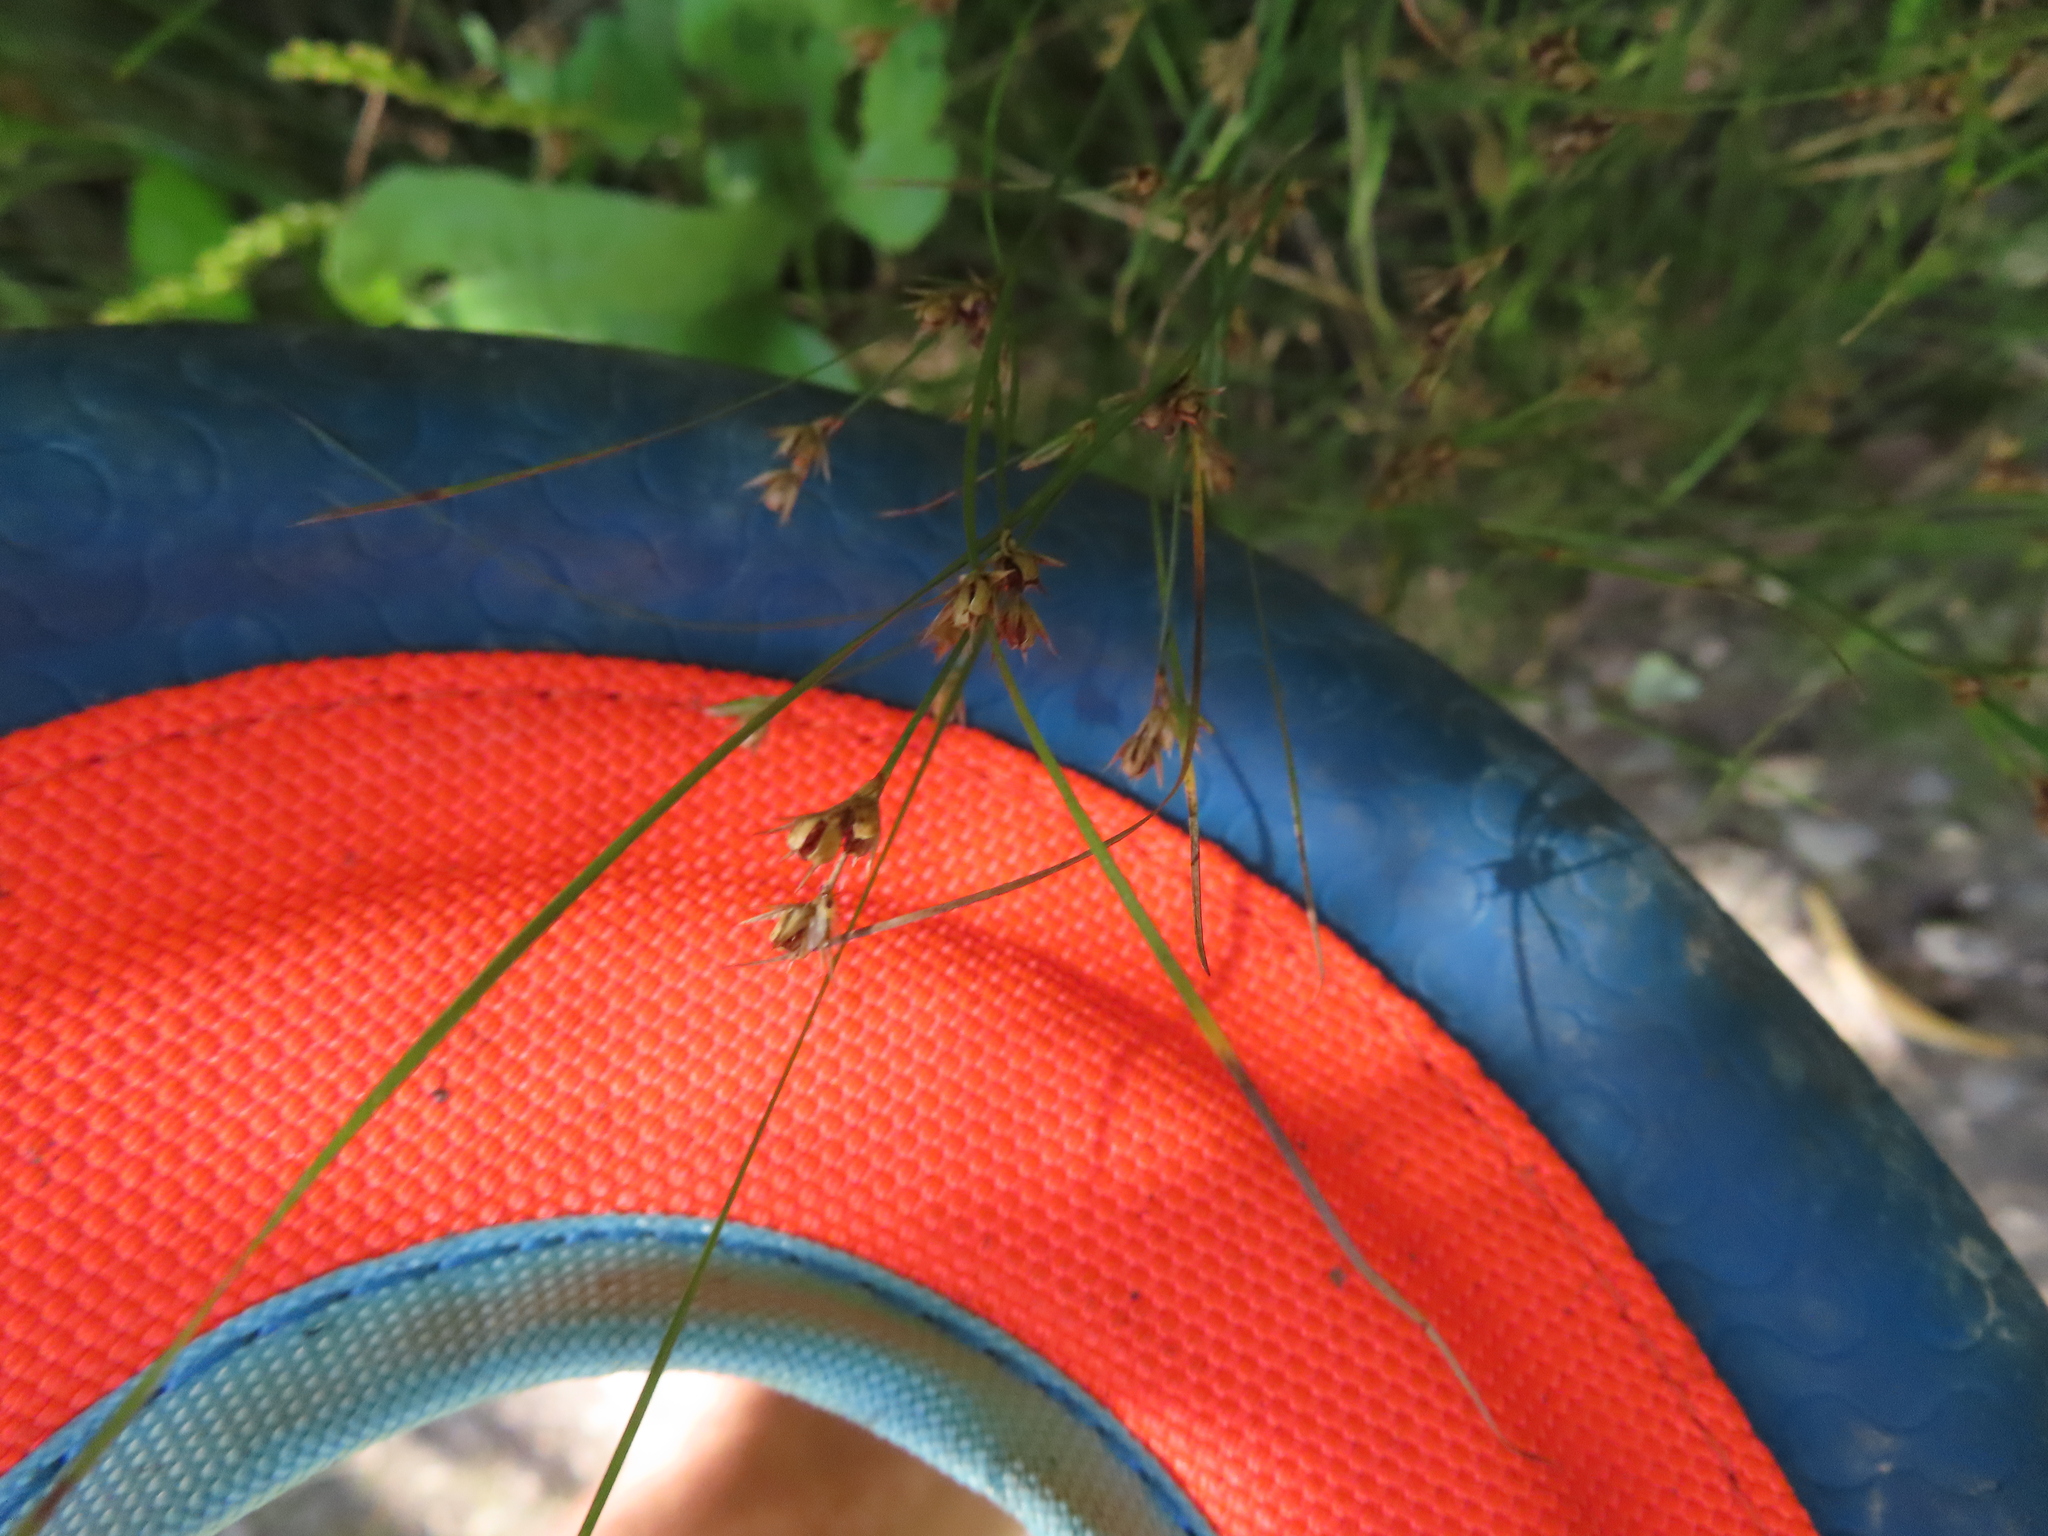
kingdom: Plantae
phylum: Tracheophyta
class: Liliopsida
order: Poales
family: Juncaceae
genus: Juncus
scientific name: Juncus tenuis
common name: Slender rush
